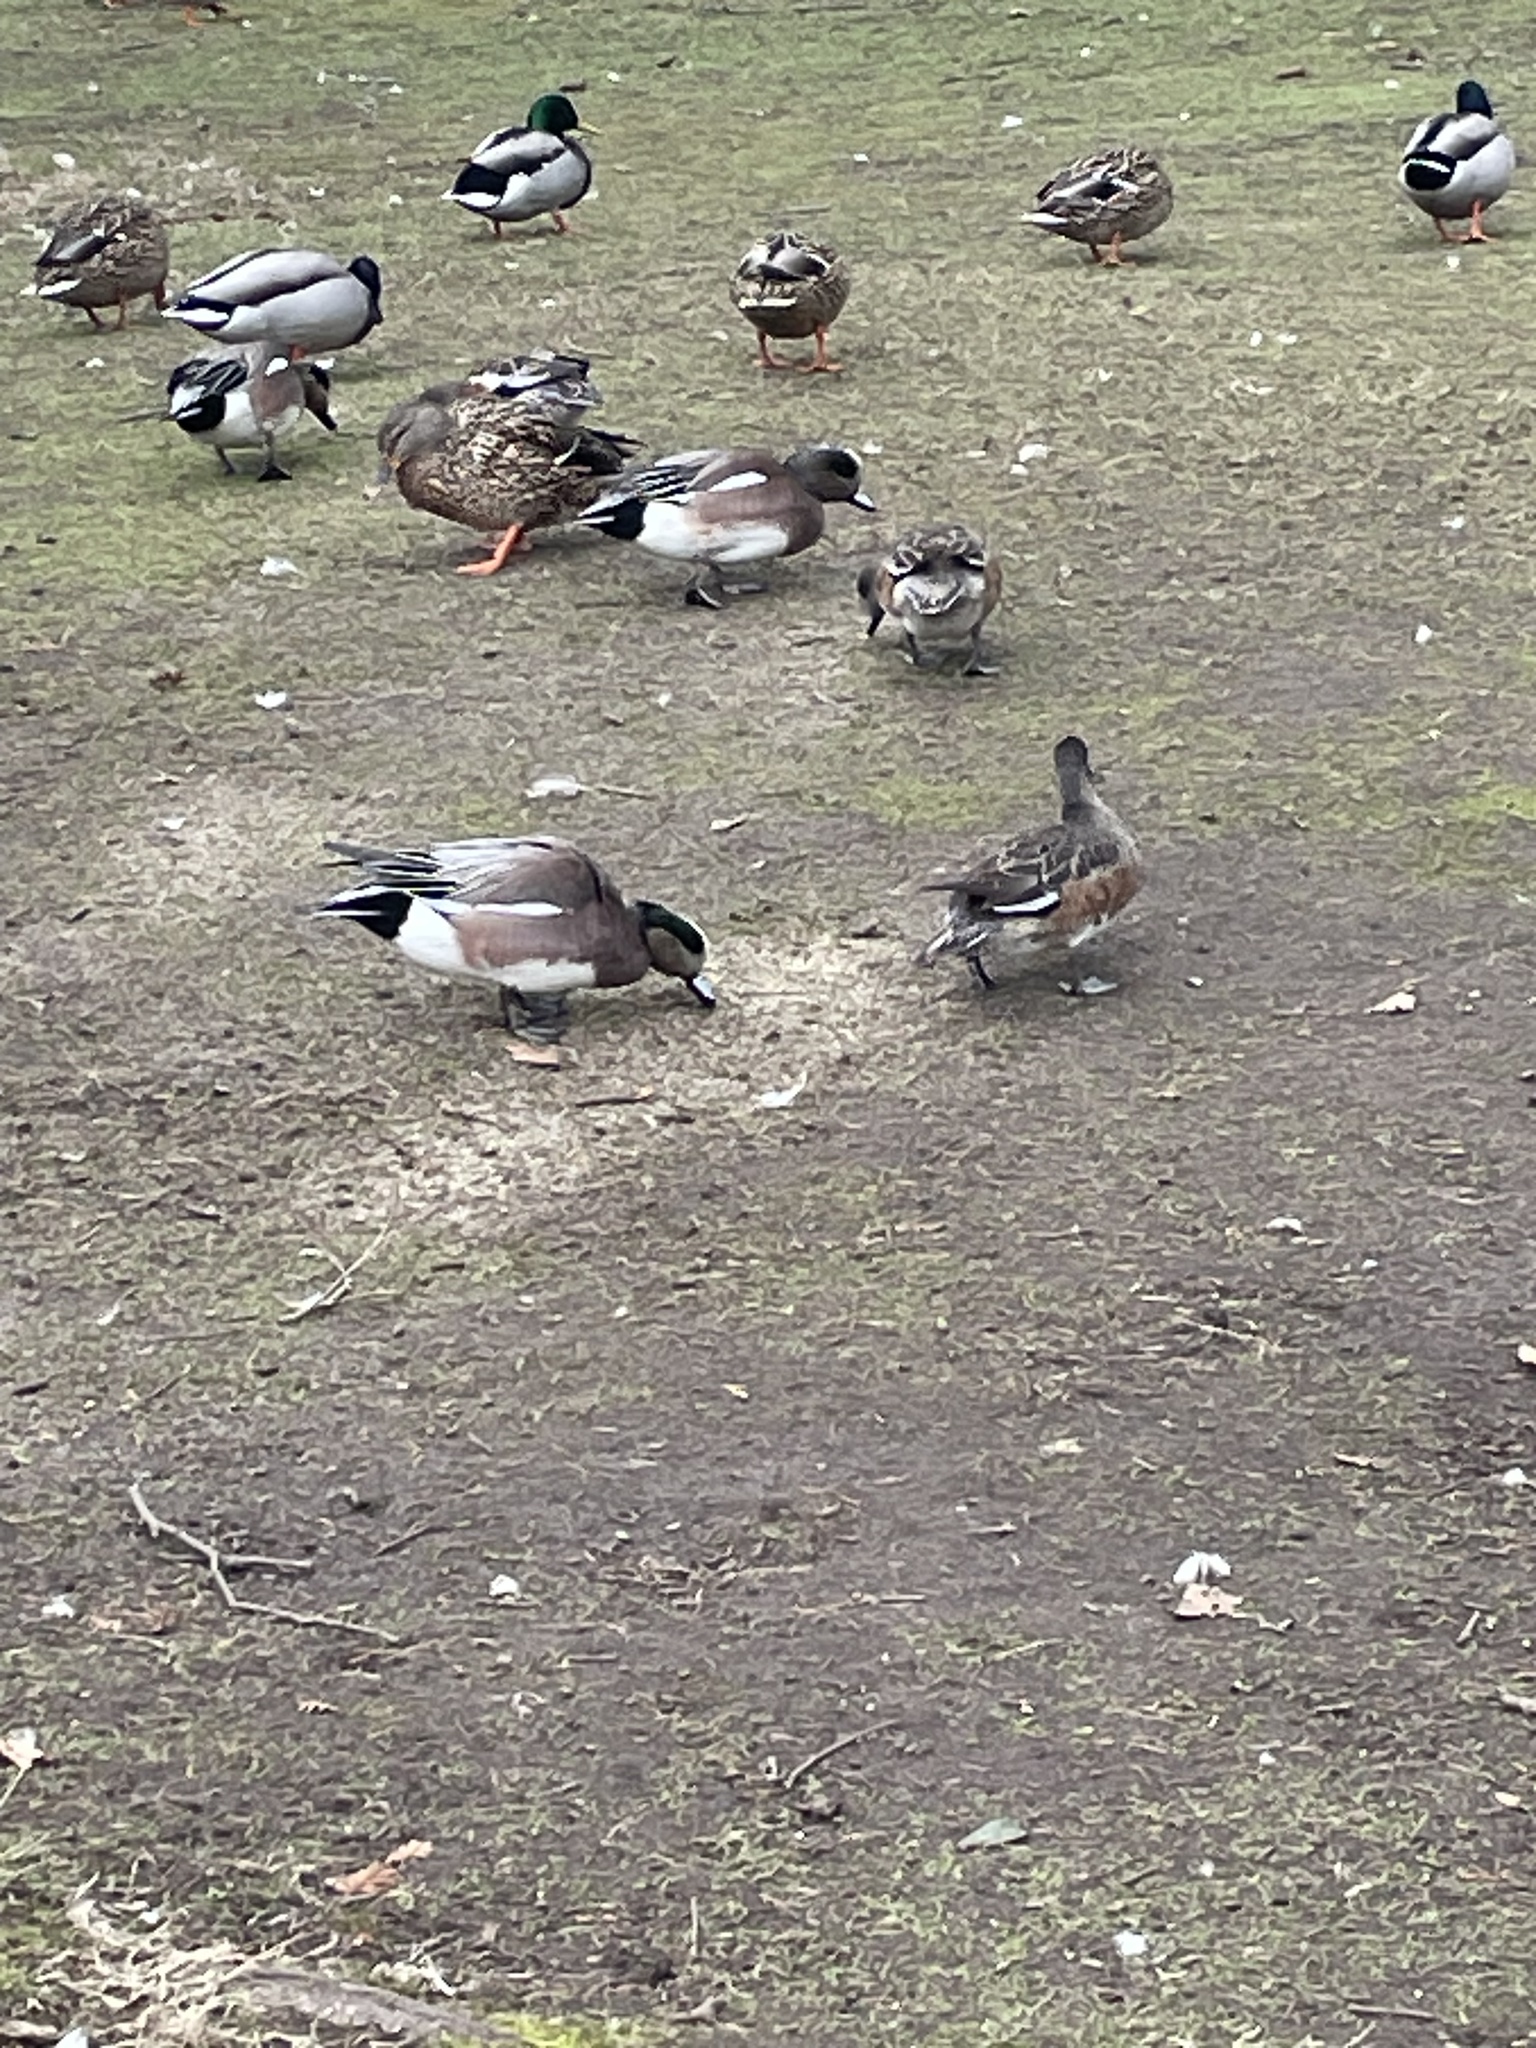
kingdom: Animalia
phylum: Chordata
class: Aves
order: Anseriformes
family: Anatidae
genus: Mareca
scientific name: Mareca americana
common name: American wigeon
